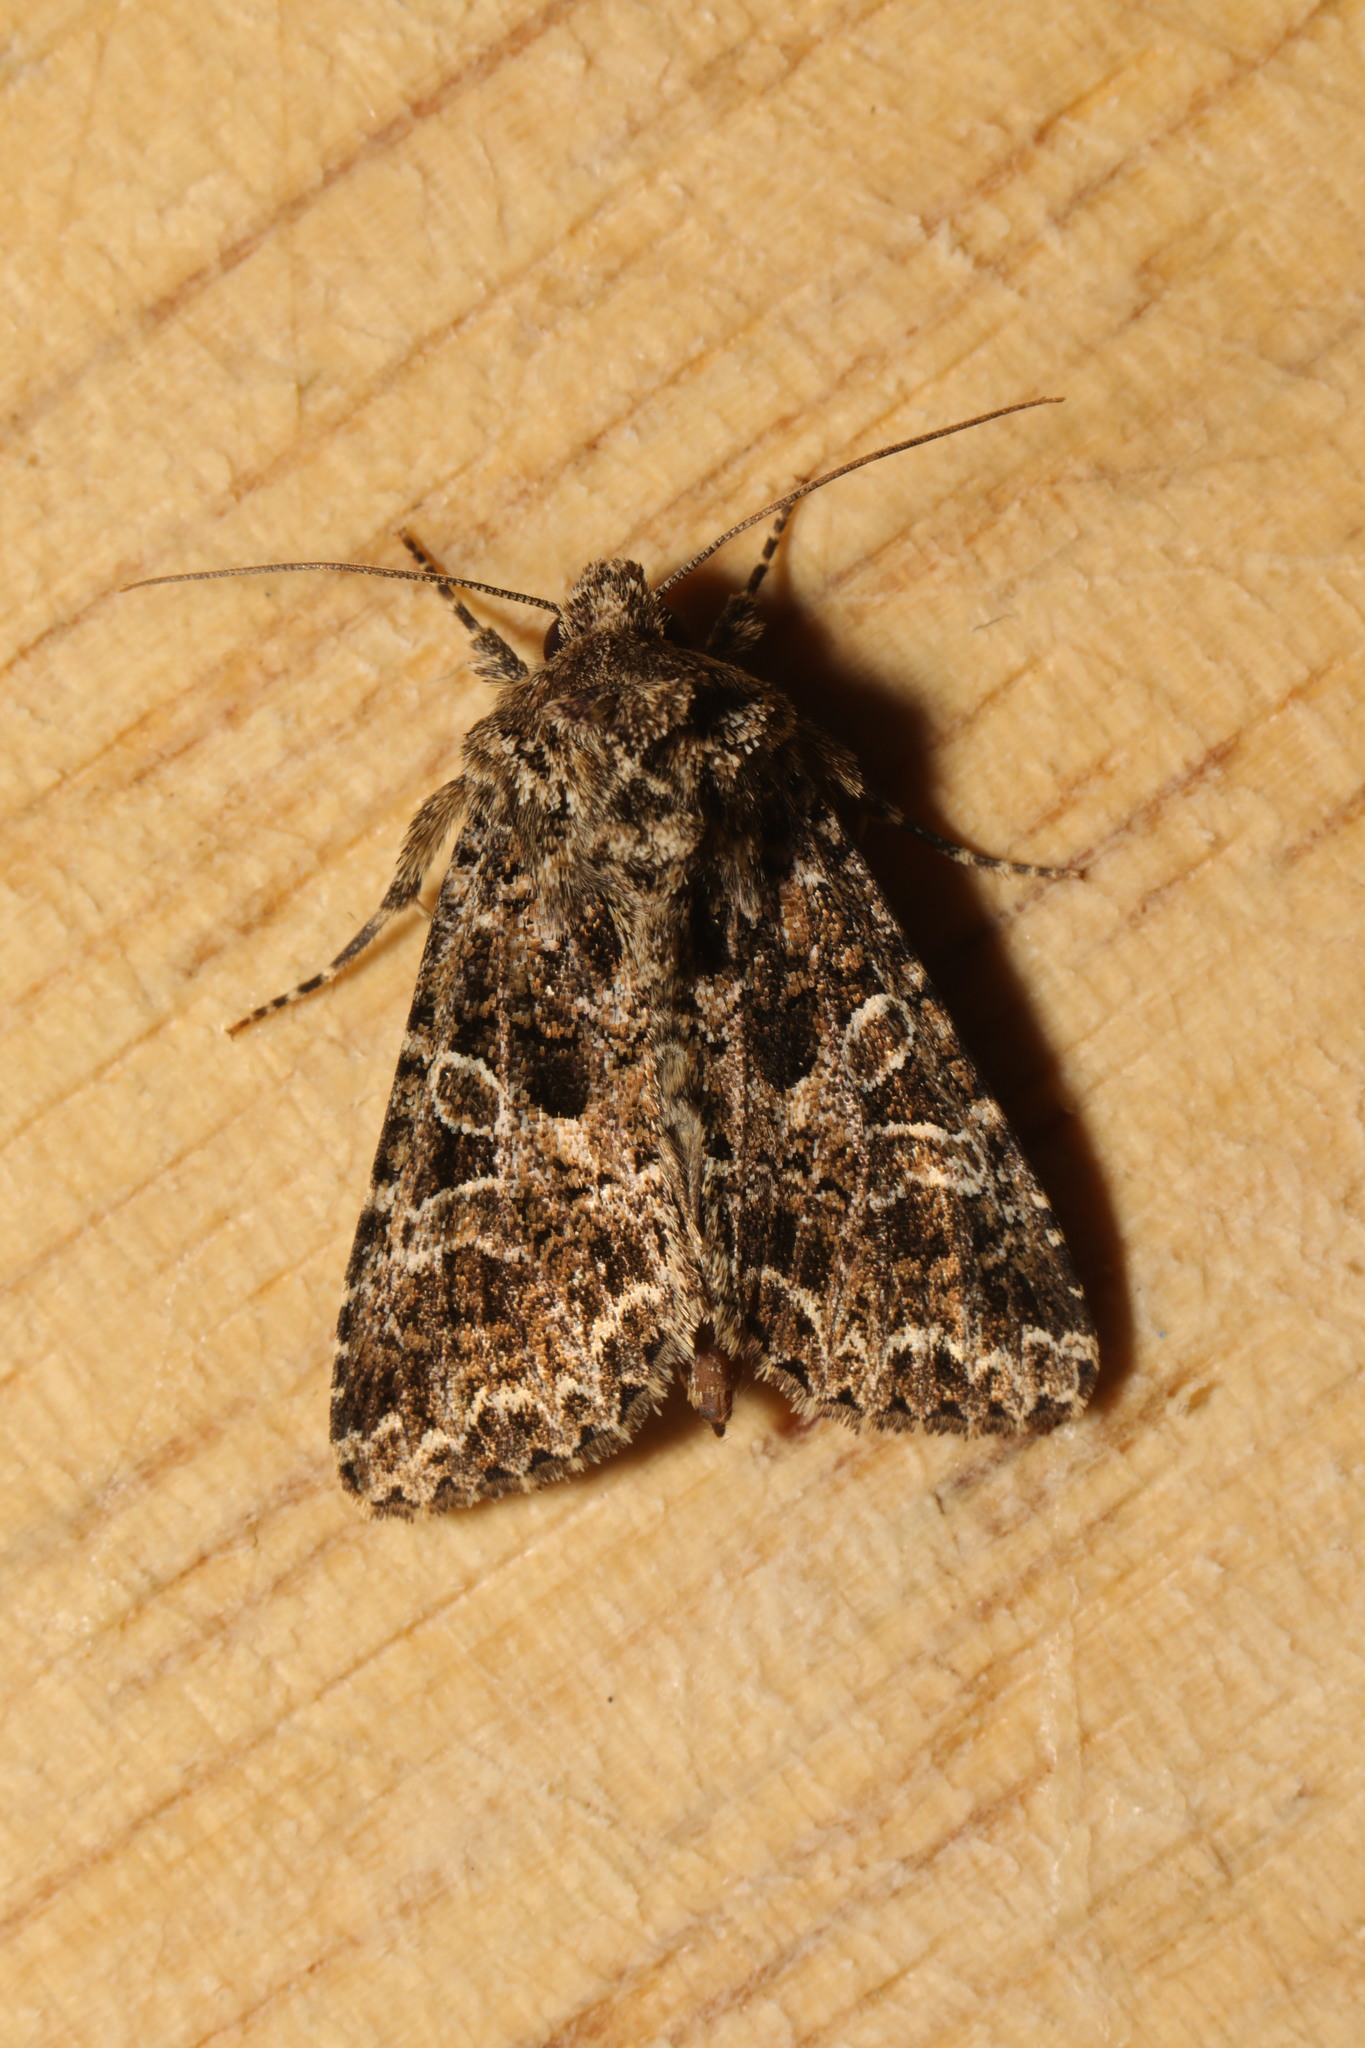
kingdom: Animalia
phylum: Arthropoda
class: Insecta
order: Lepidoptera
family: Noctuidae
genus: Hadena
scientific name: Hadena bicruris
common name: Lychnis
